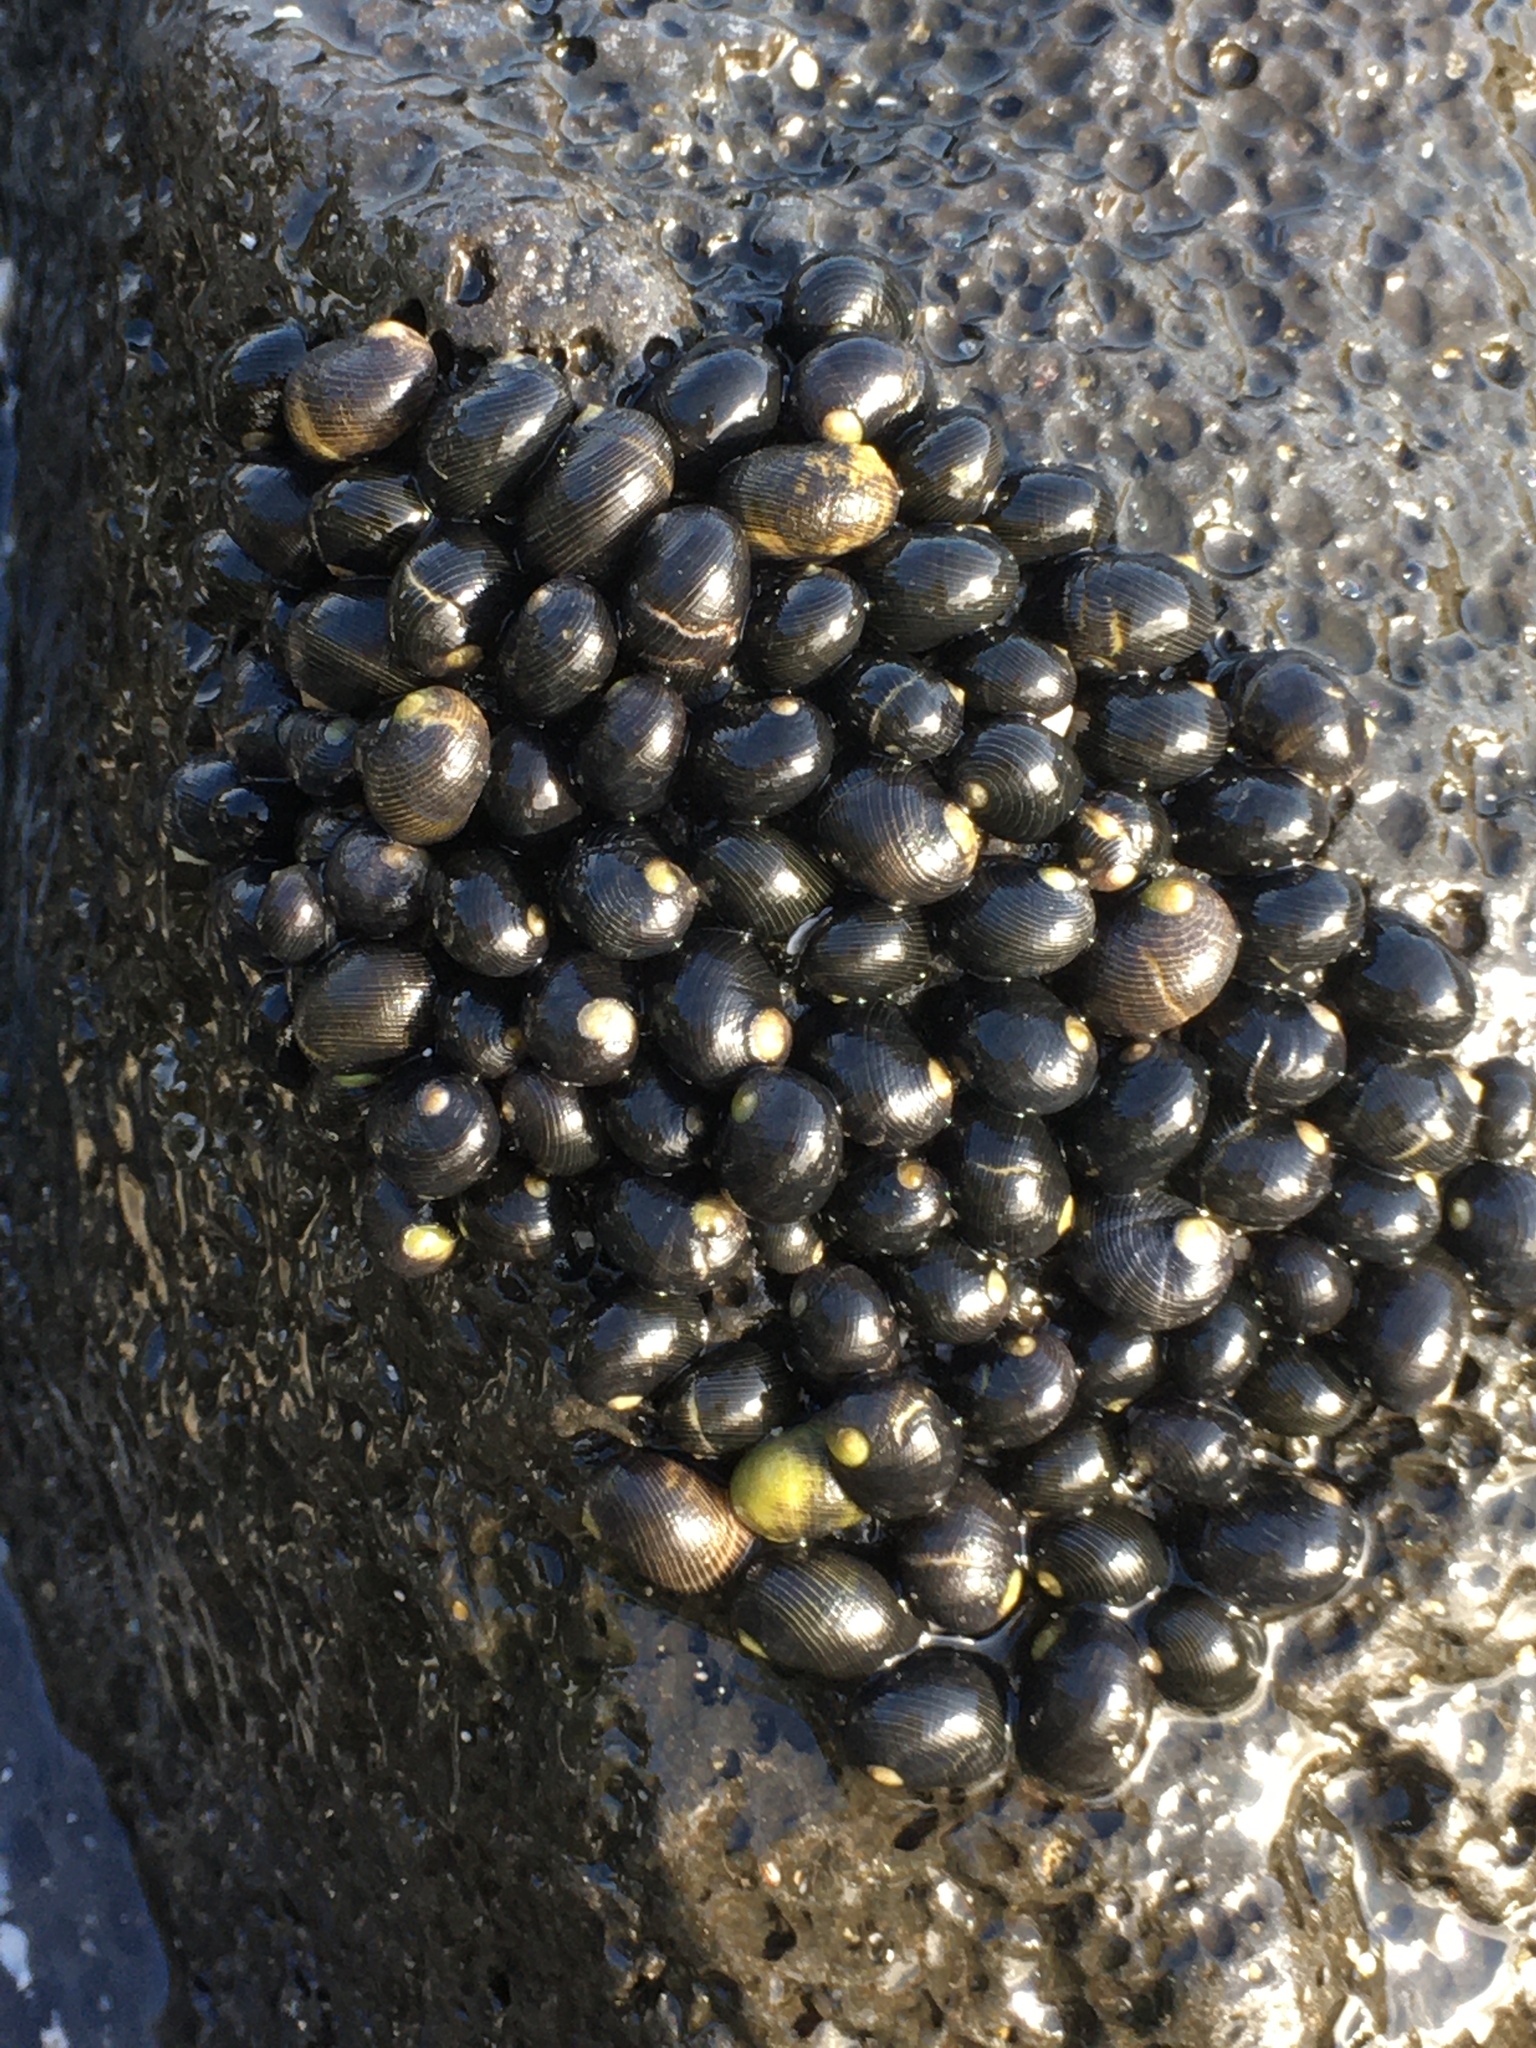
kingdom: Animalia
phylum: Mollusca
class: Gastropoda
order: Cycloneritida
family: Neritidae
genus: Nerita
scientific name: Nerita picea
